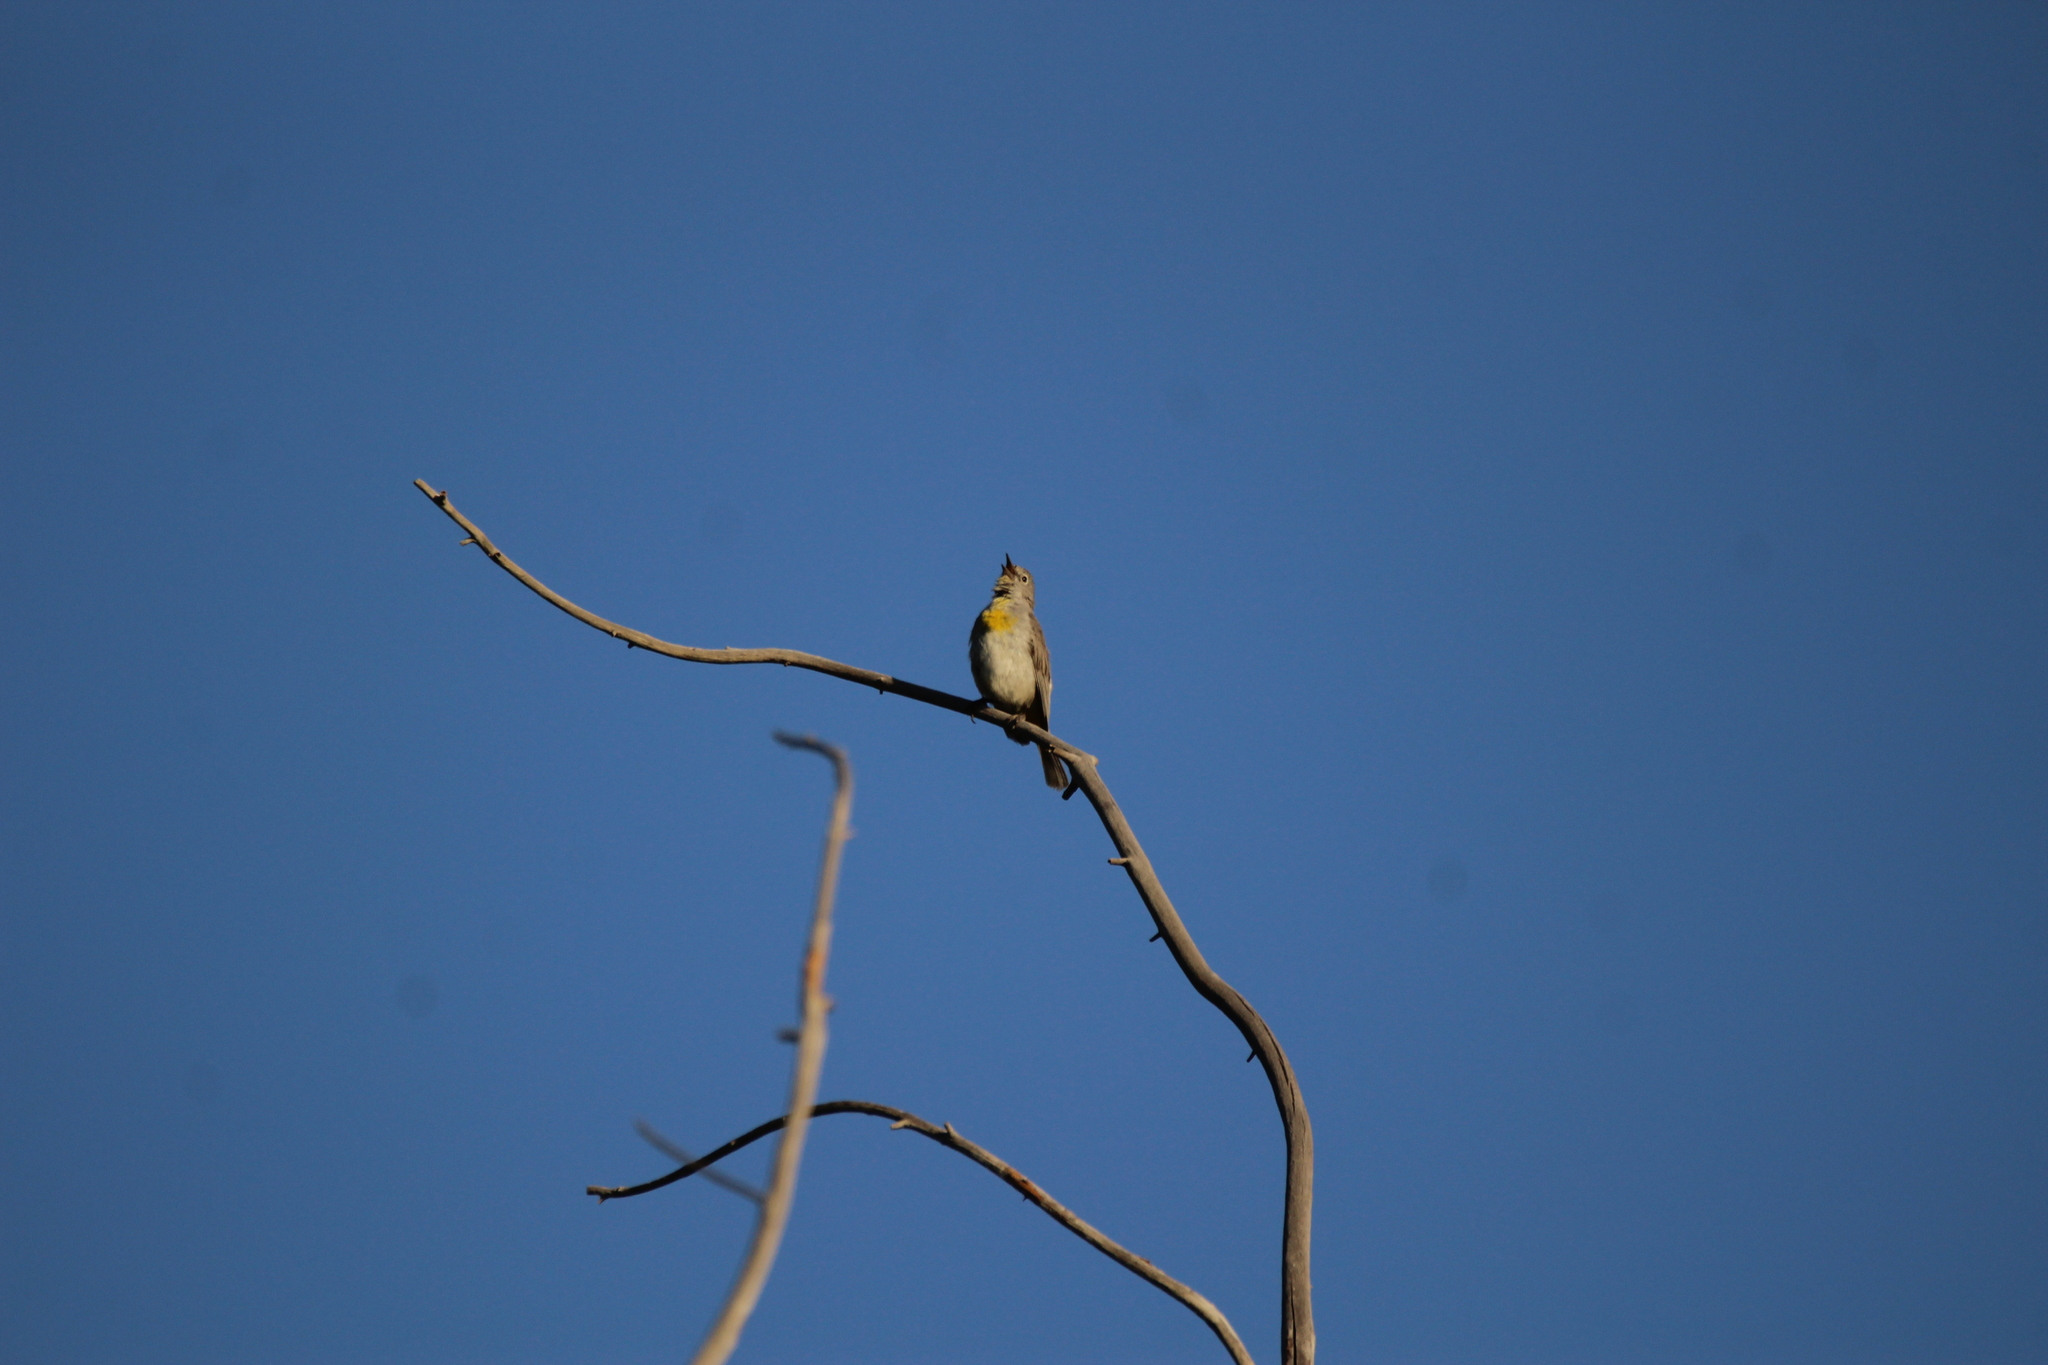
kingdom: Animalia
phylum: Chordata
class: Aves
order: Passeriformes
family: Parulidae
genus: Leiothlypis
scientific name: Leiothlypis virginiae
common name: Virginia's warbler
